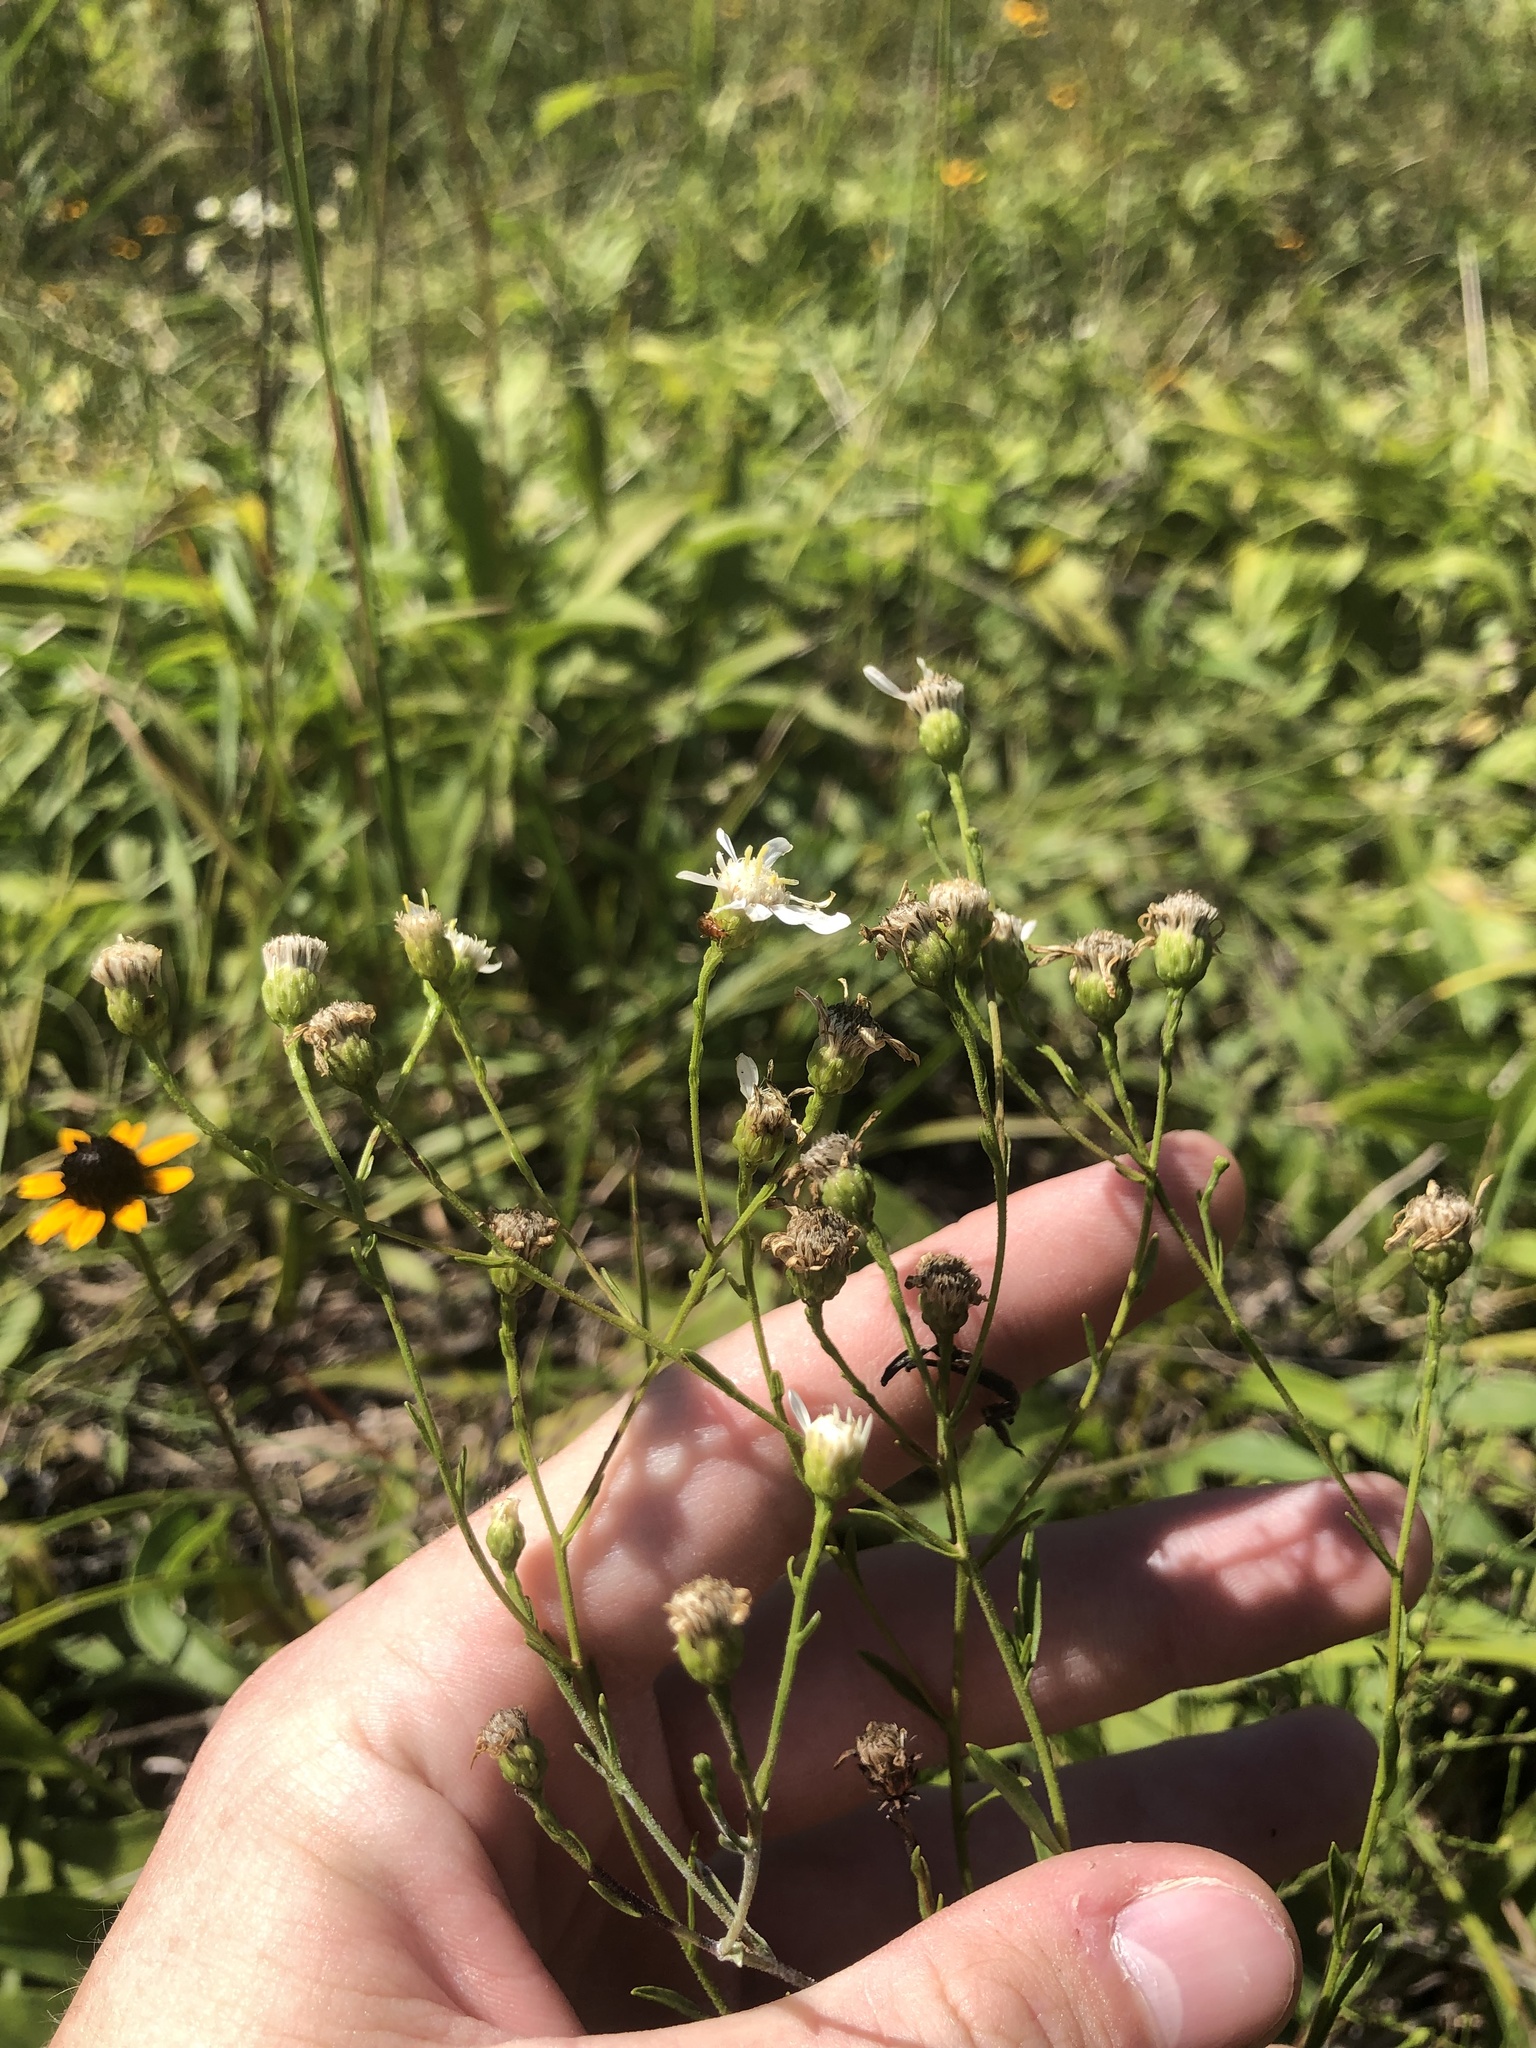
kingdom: Plantae
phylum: Tracheophyta
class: Magnoliopsida
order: Asterales
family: Asteraceae
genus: Solidago
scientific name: Solidago ptarmicoides
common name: White flat-top goldenrod
